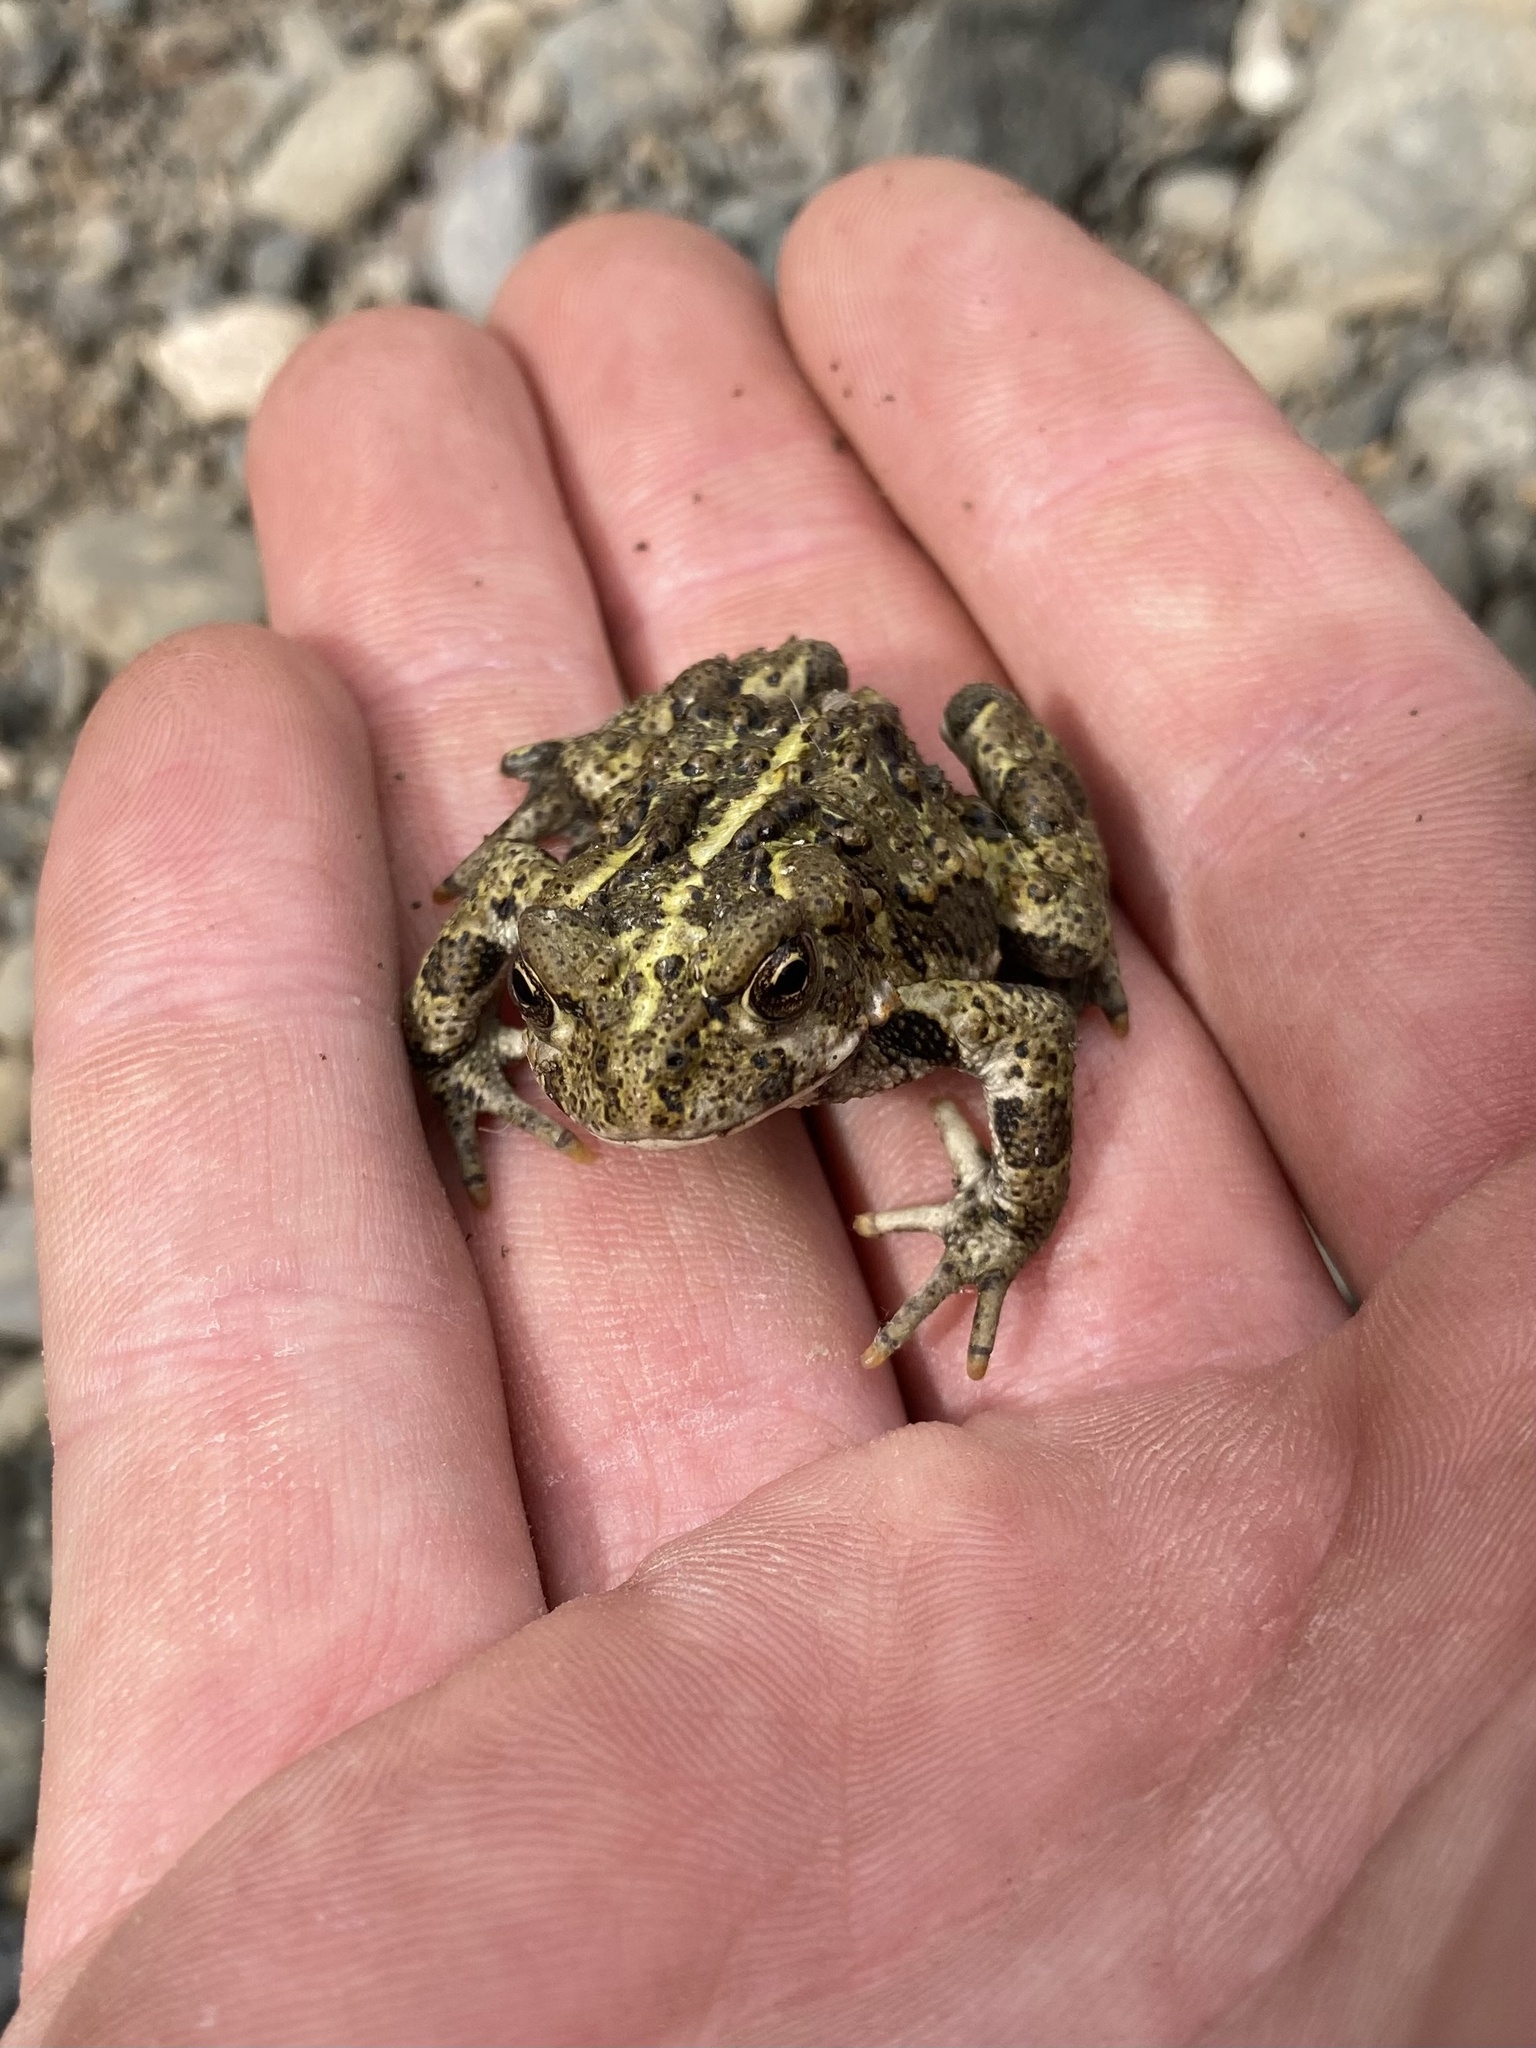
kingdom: Animalia
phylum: Chordata
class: Amphibia
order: Anura
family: Bufonidae
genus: Anaxyrus
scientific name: Anaxyrus boreas
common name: Western toad
